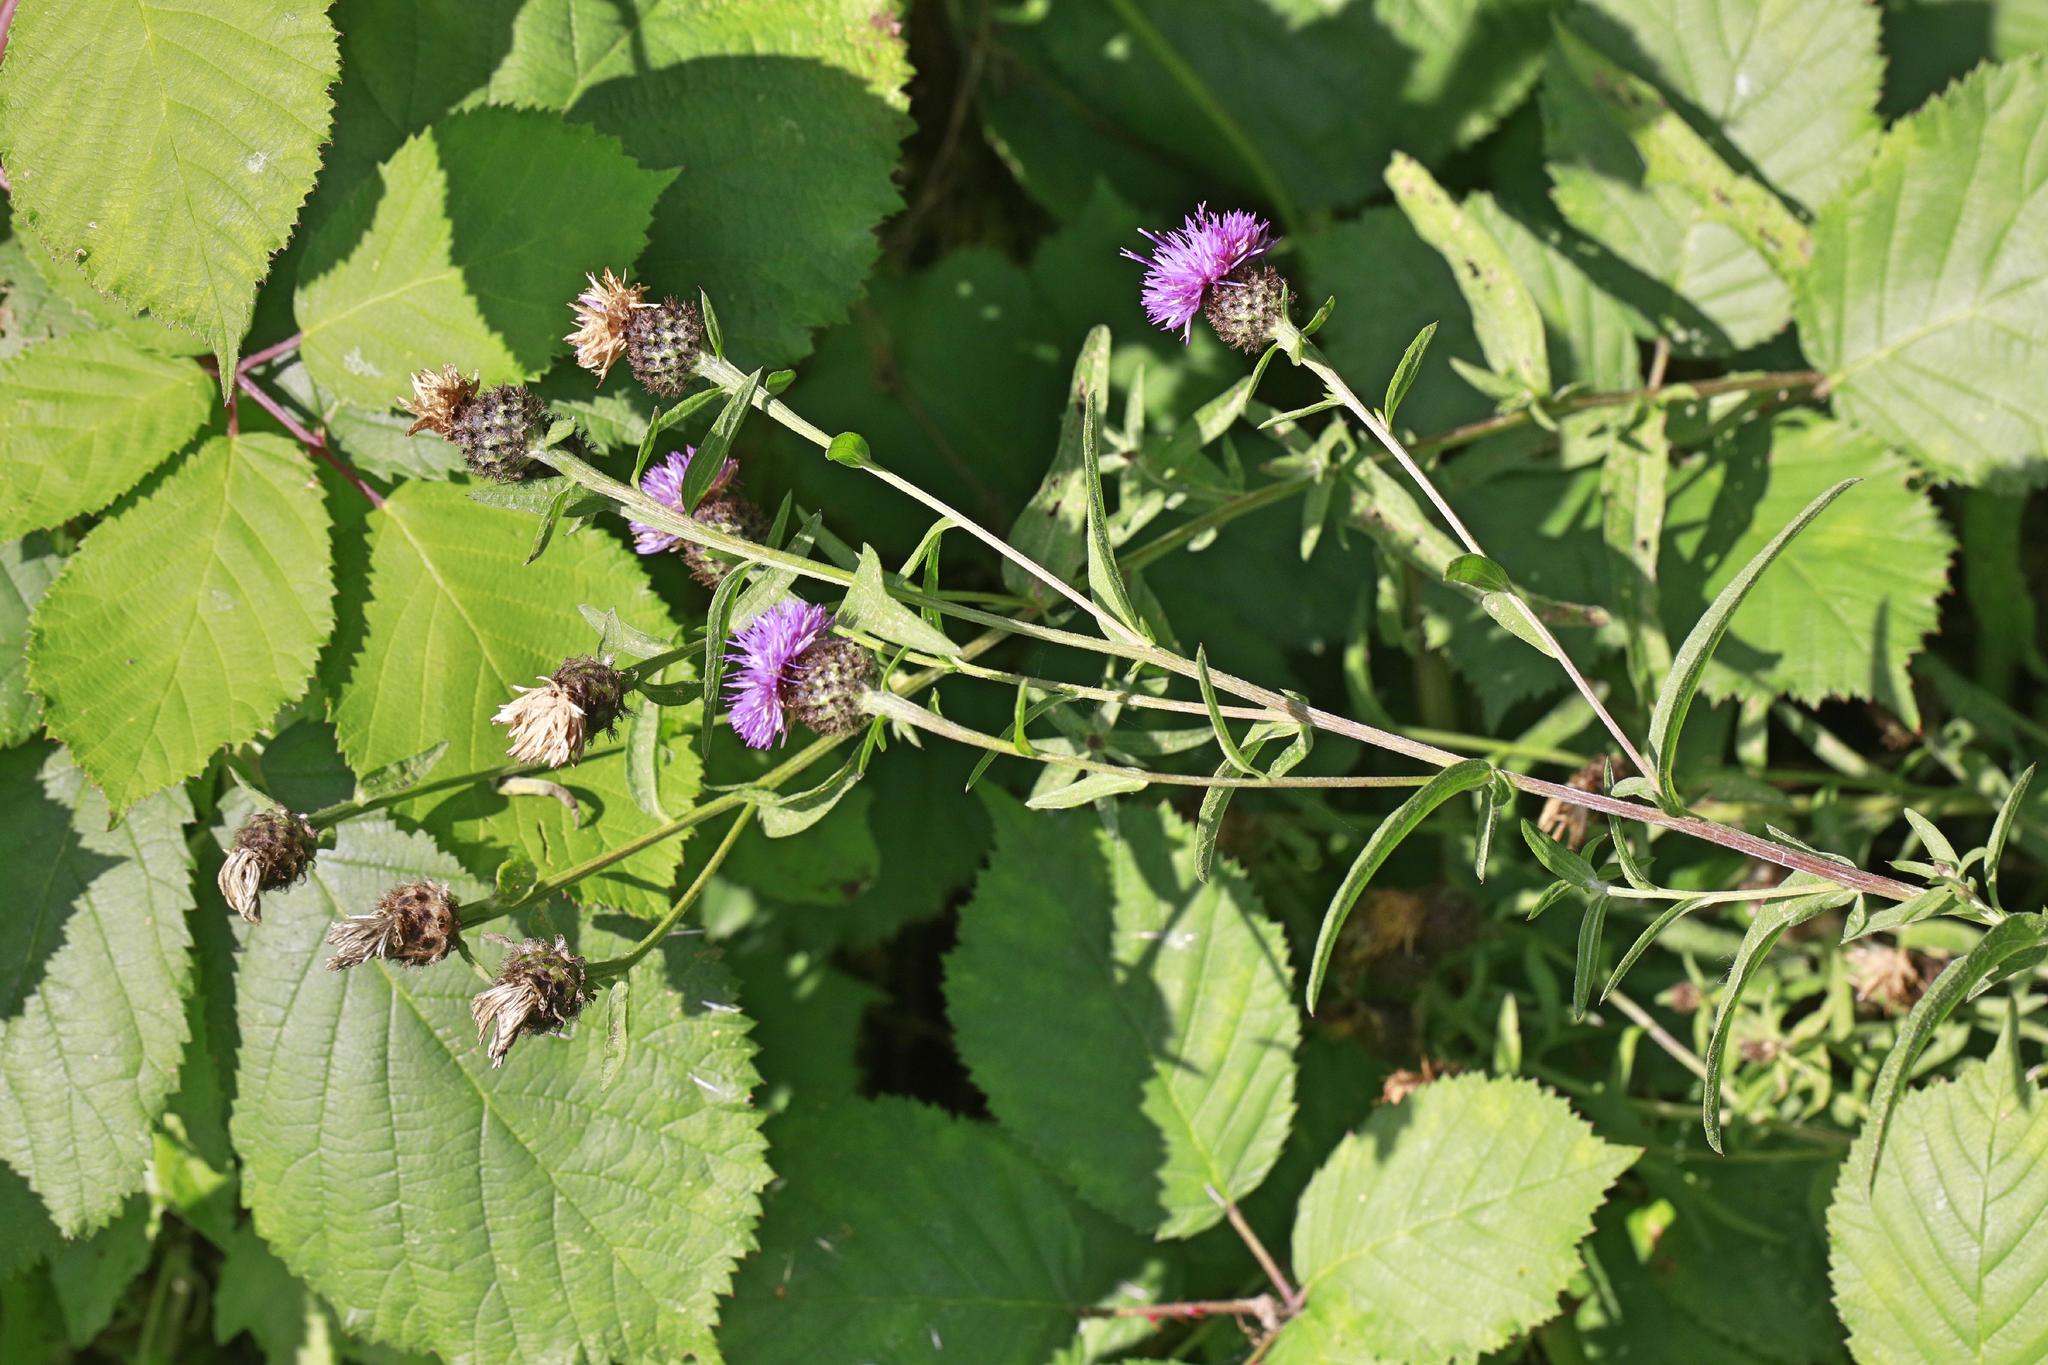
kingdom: Plantae
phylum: Tracheophyta
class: Magnoliopsida
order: Asterales
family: Asteraceae
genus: Centaurea
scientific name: Centaurea nigra
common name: Lesser knapweed
